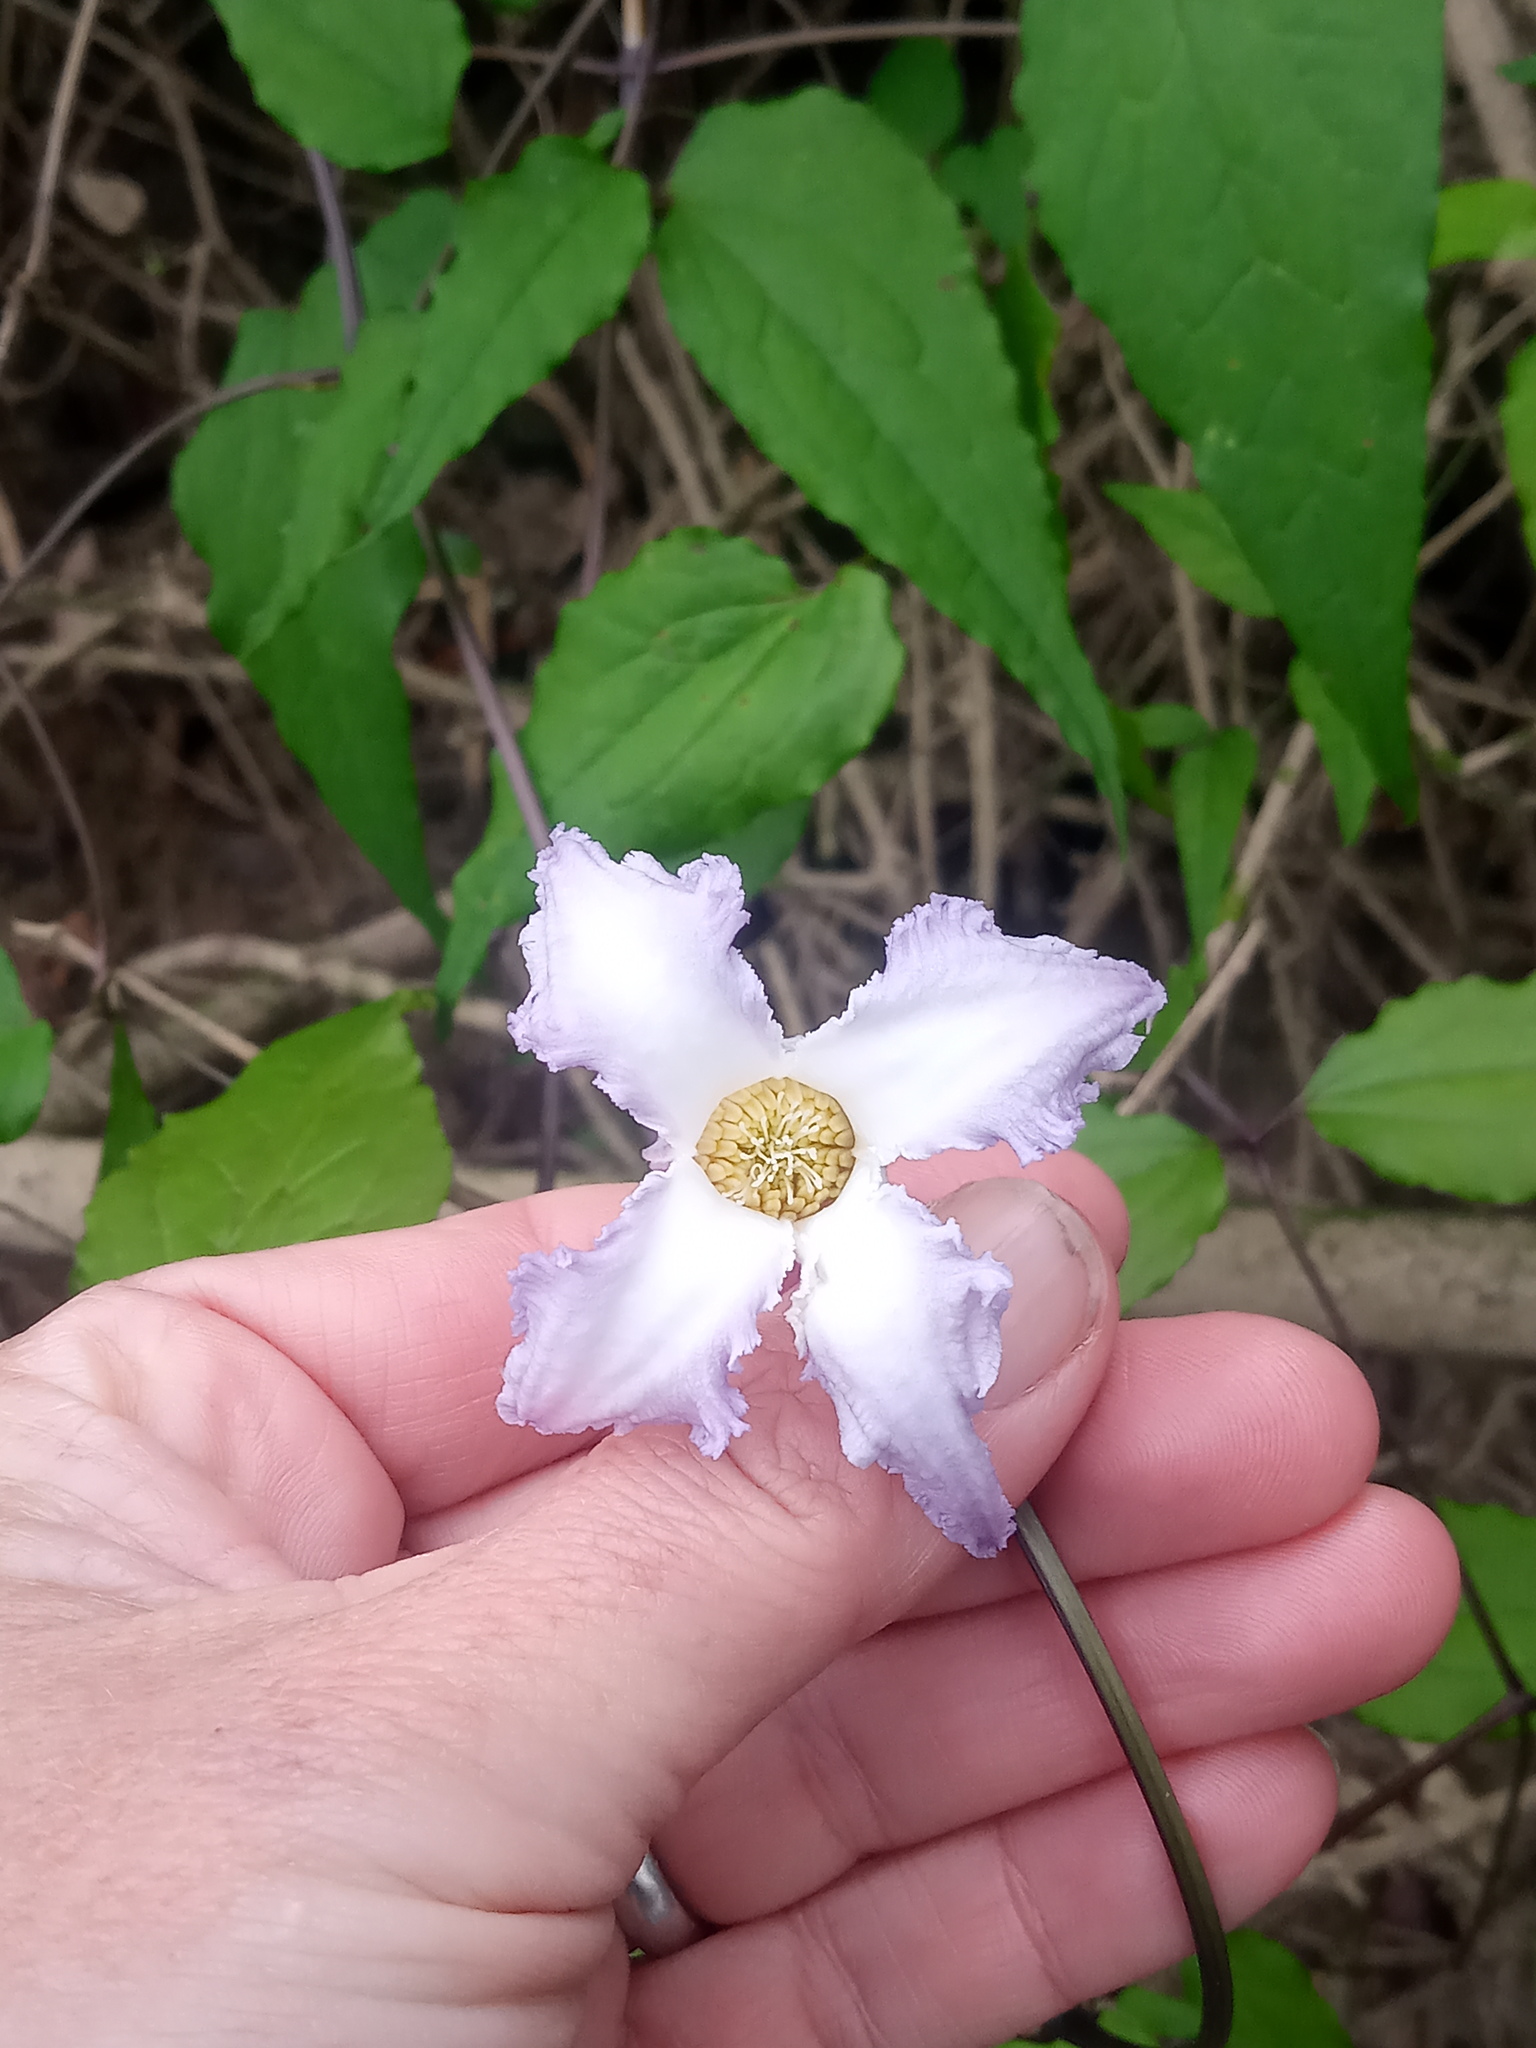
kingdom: Plantae
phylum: Tracheophyta
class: Magnoliopsida
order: Ranunculales
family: Ranunculaceae
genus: Clematis
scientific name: Clematis crispa
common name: Curly clematis
